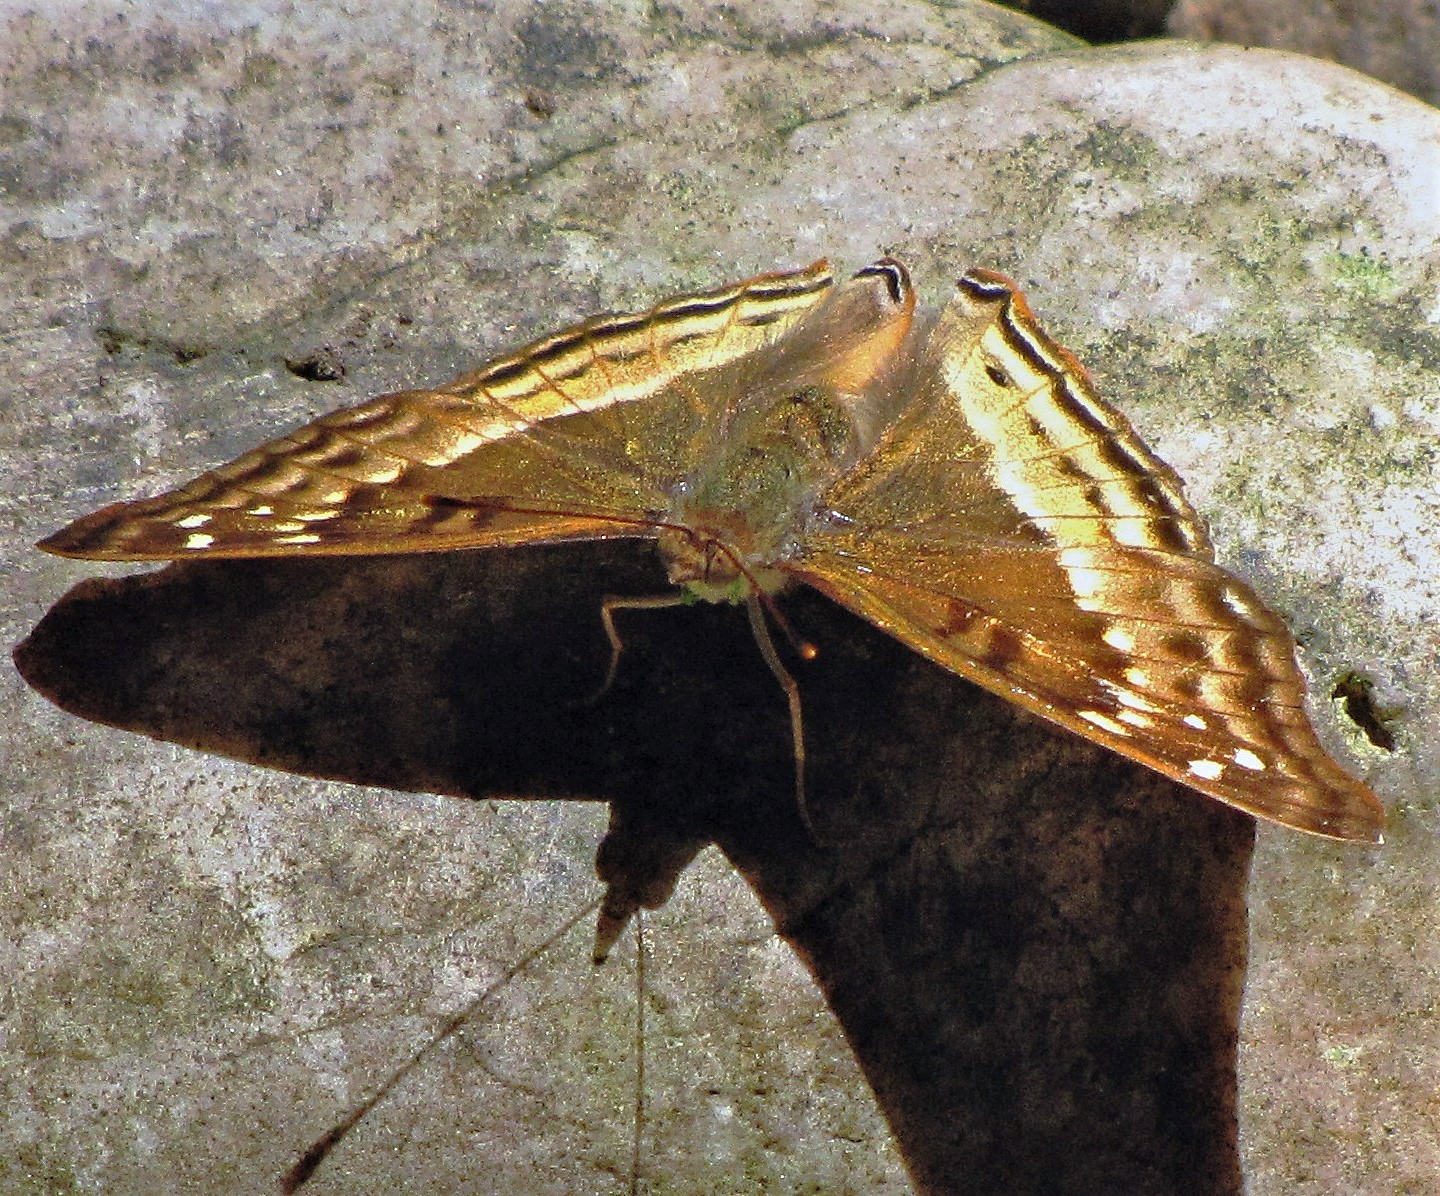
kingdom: Animalia
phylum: Arthropoda
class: Insecta
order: Lepidoptera
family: Nymphalidae
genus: Doxocopa
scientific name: Doxocopa cyane
